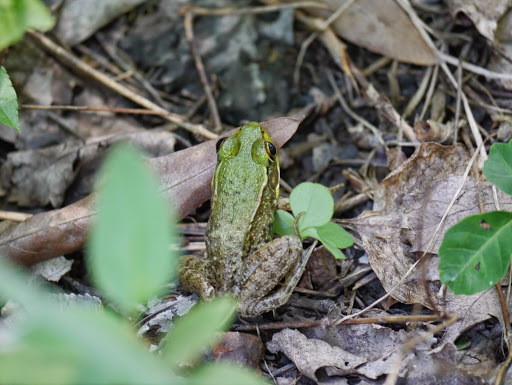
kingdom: Animalia
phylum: Chordata
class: Amphibia
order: Anura
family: Ranidae
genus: Lithobates
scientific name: Lithobates clamitans
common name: Green frog
